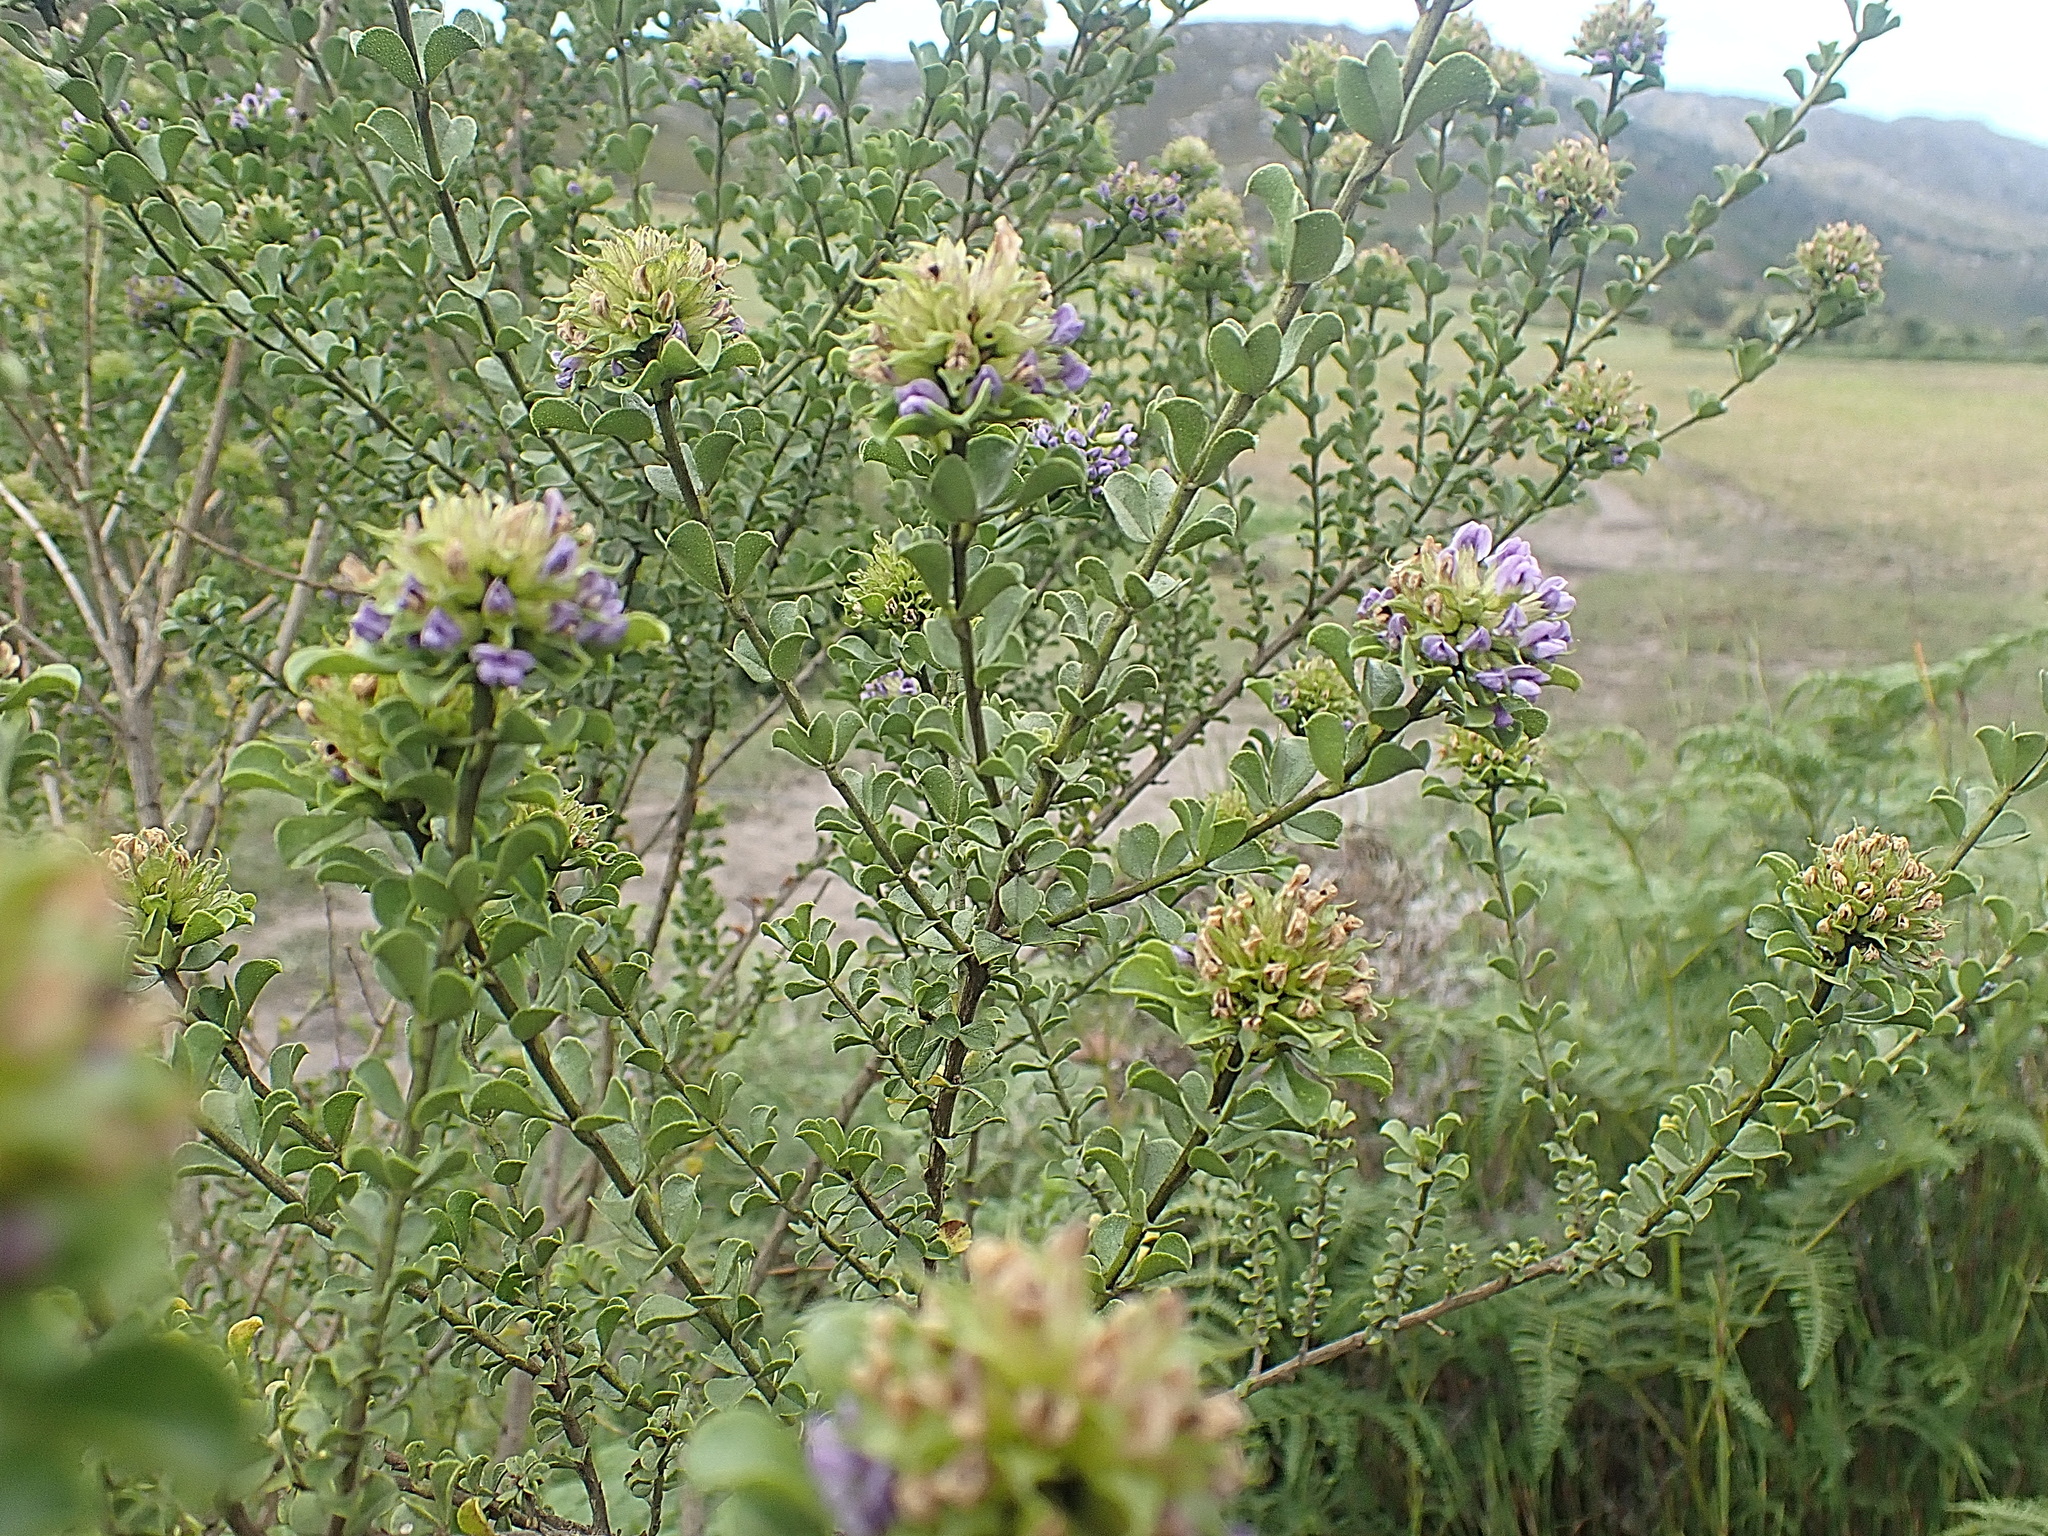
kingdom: Plantae
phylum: Tracheophyta
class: Magnoliopsida
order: Fabales
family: Fabaceae
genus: Psoralea
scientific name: Psoralea stachyera
